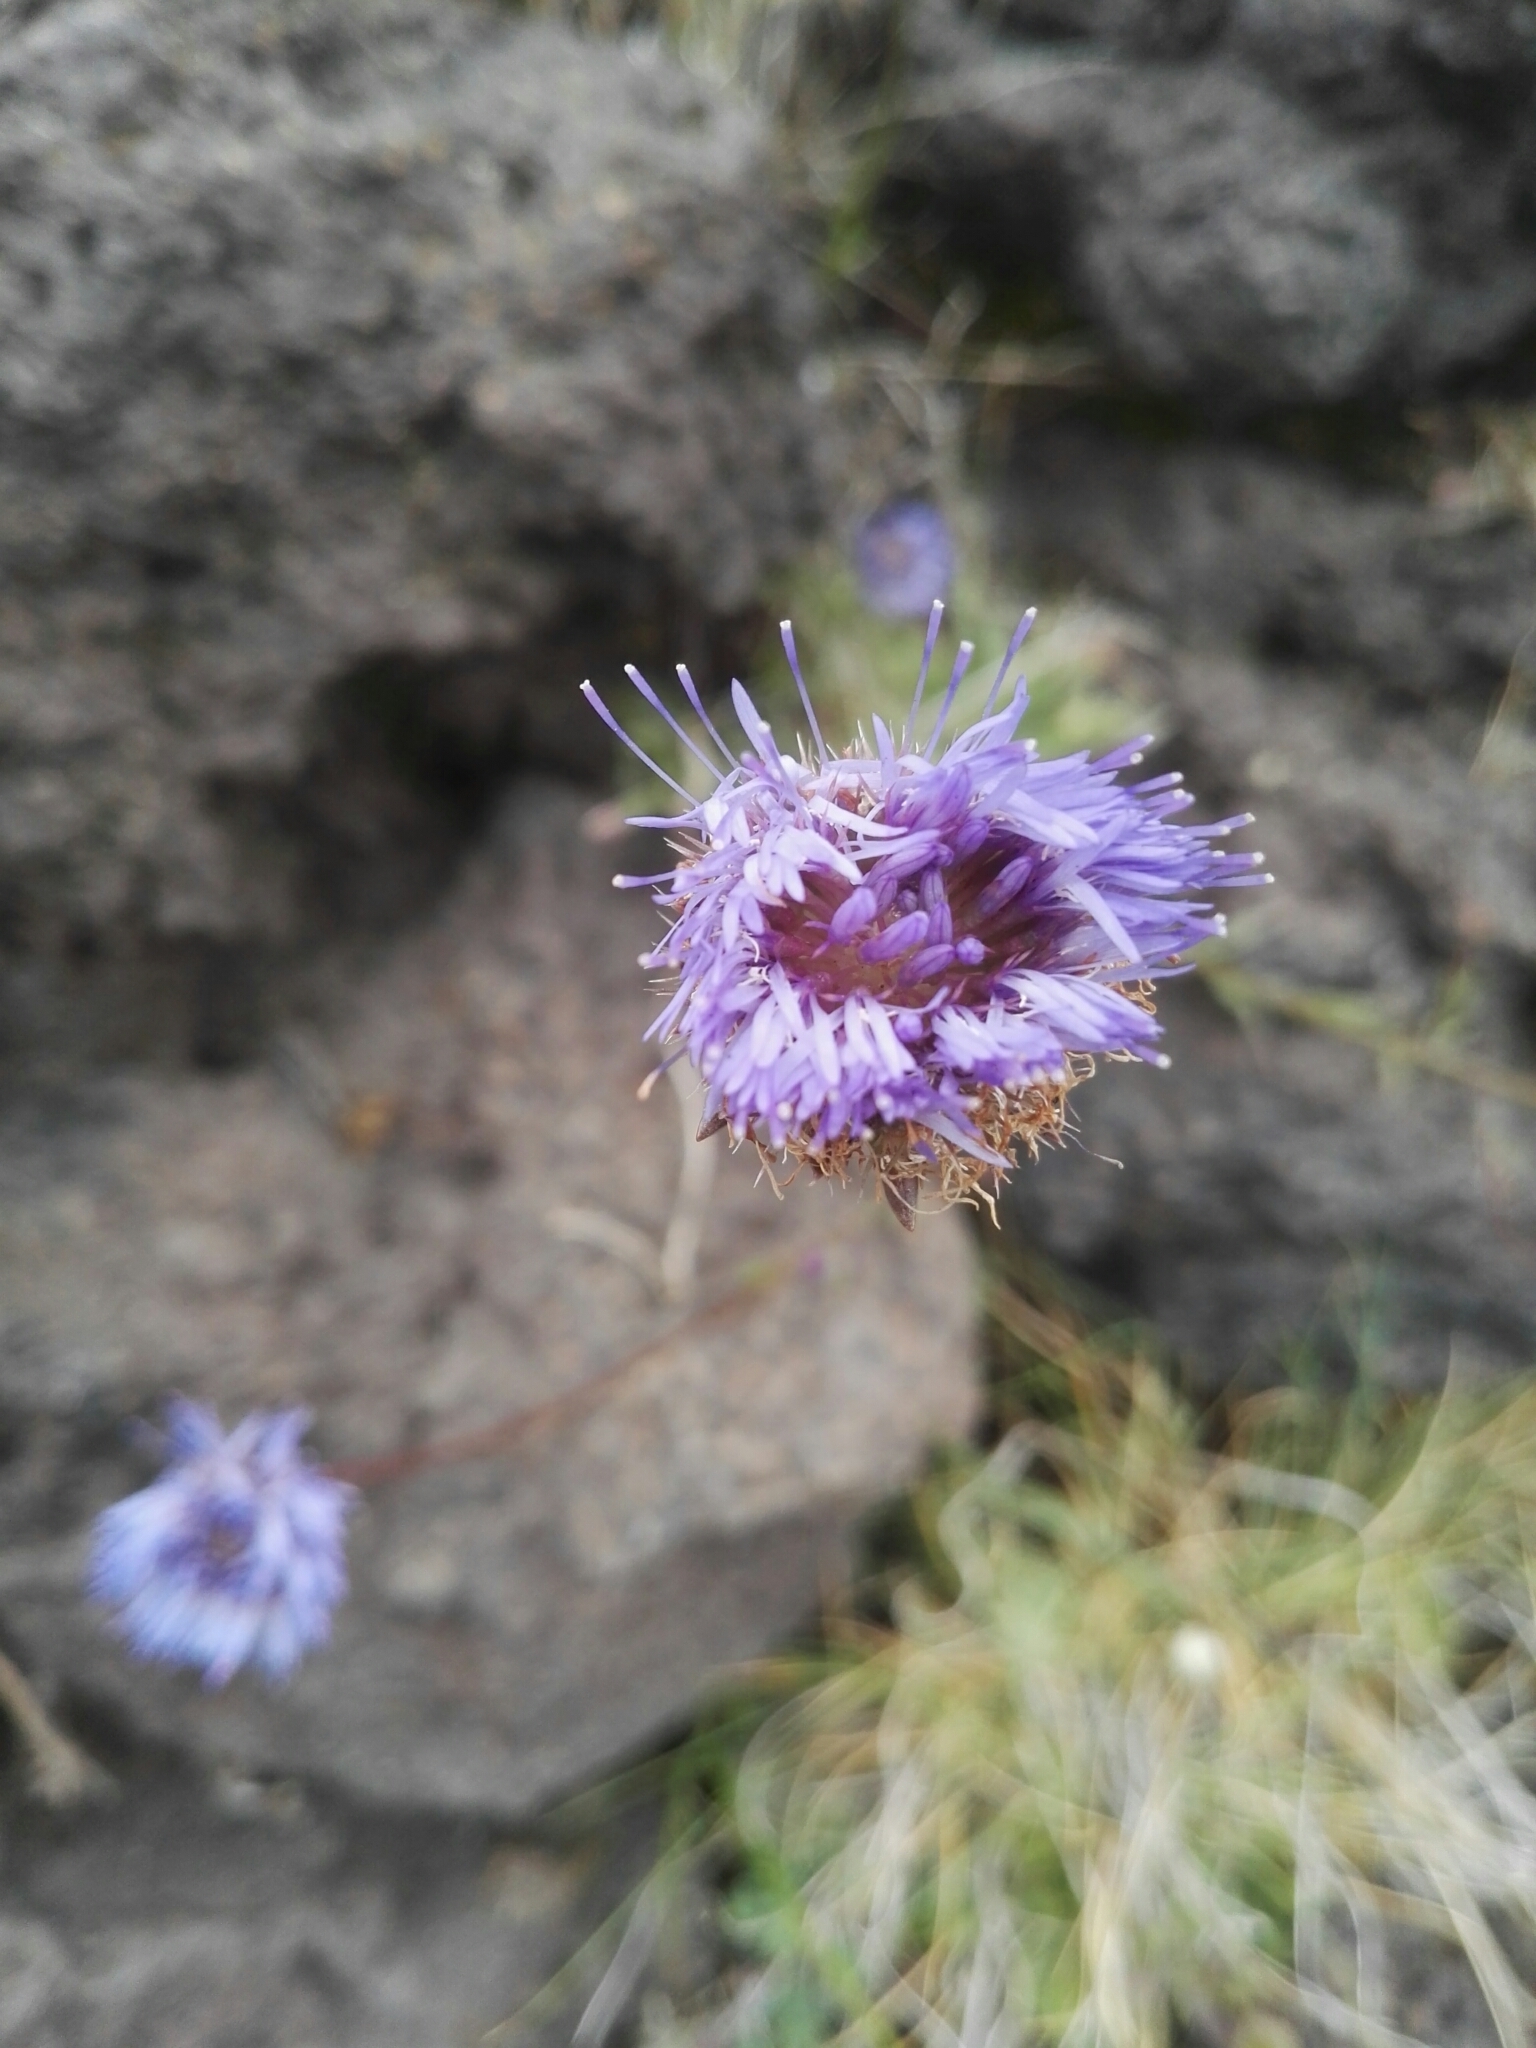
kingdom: Plantae
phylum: Tracheophyta
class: Magnoliopsida
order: Asterales
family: Campanulaceae
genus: Jasione
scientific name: Jasione montana
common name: Sheep's-bit
